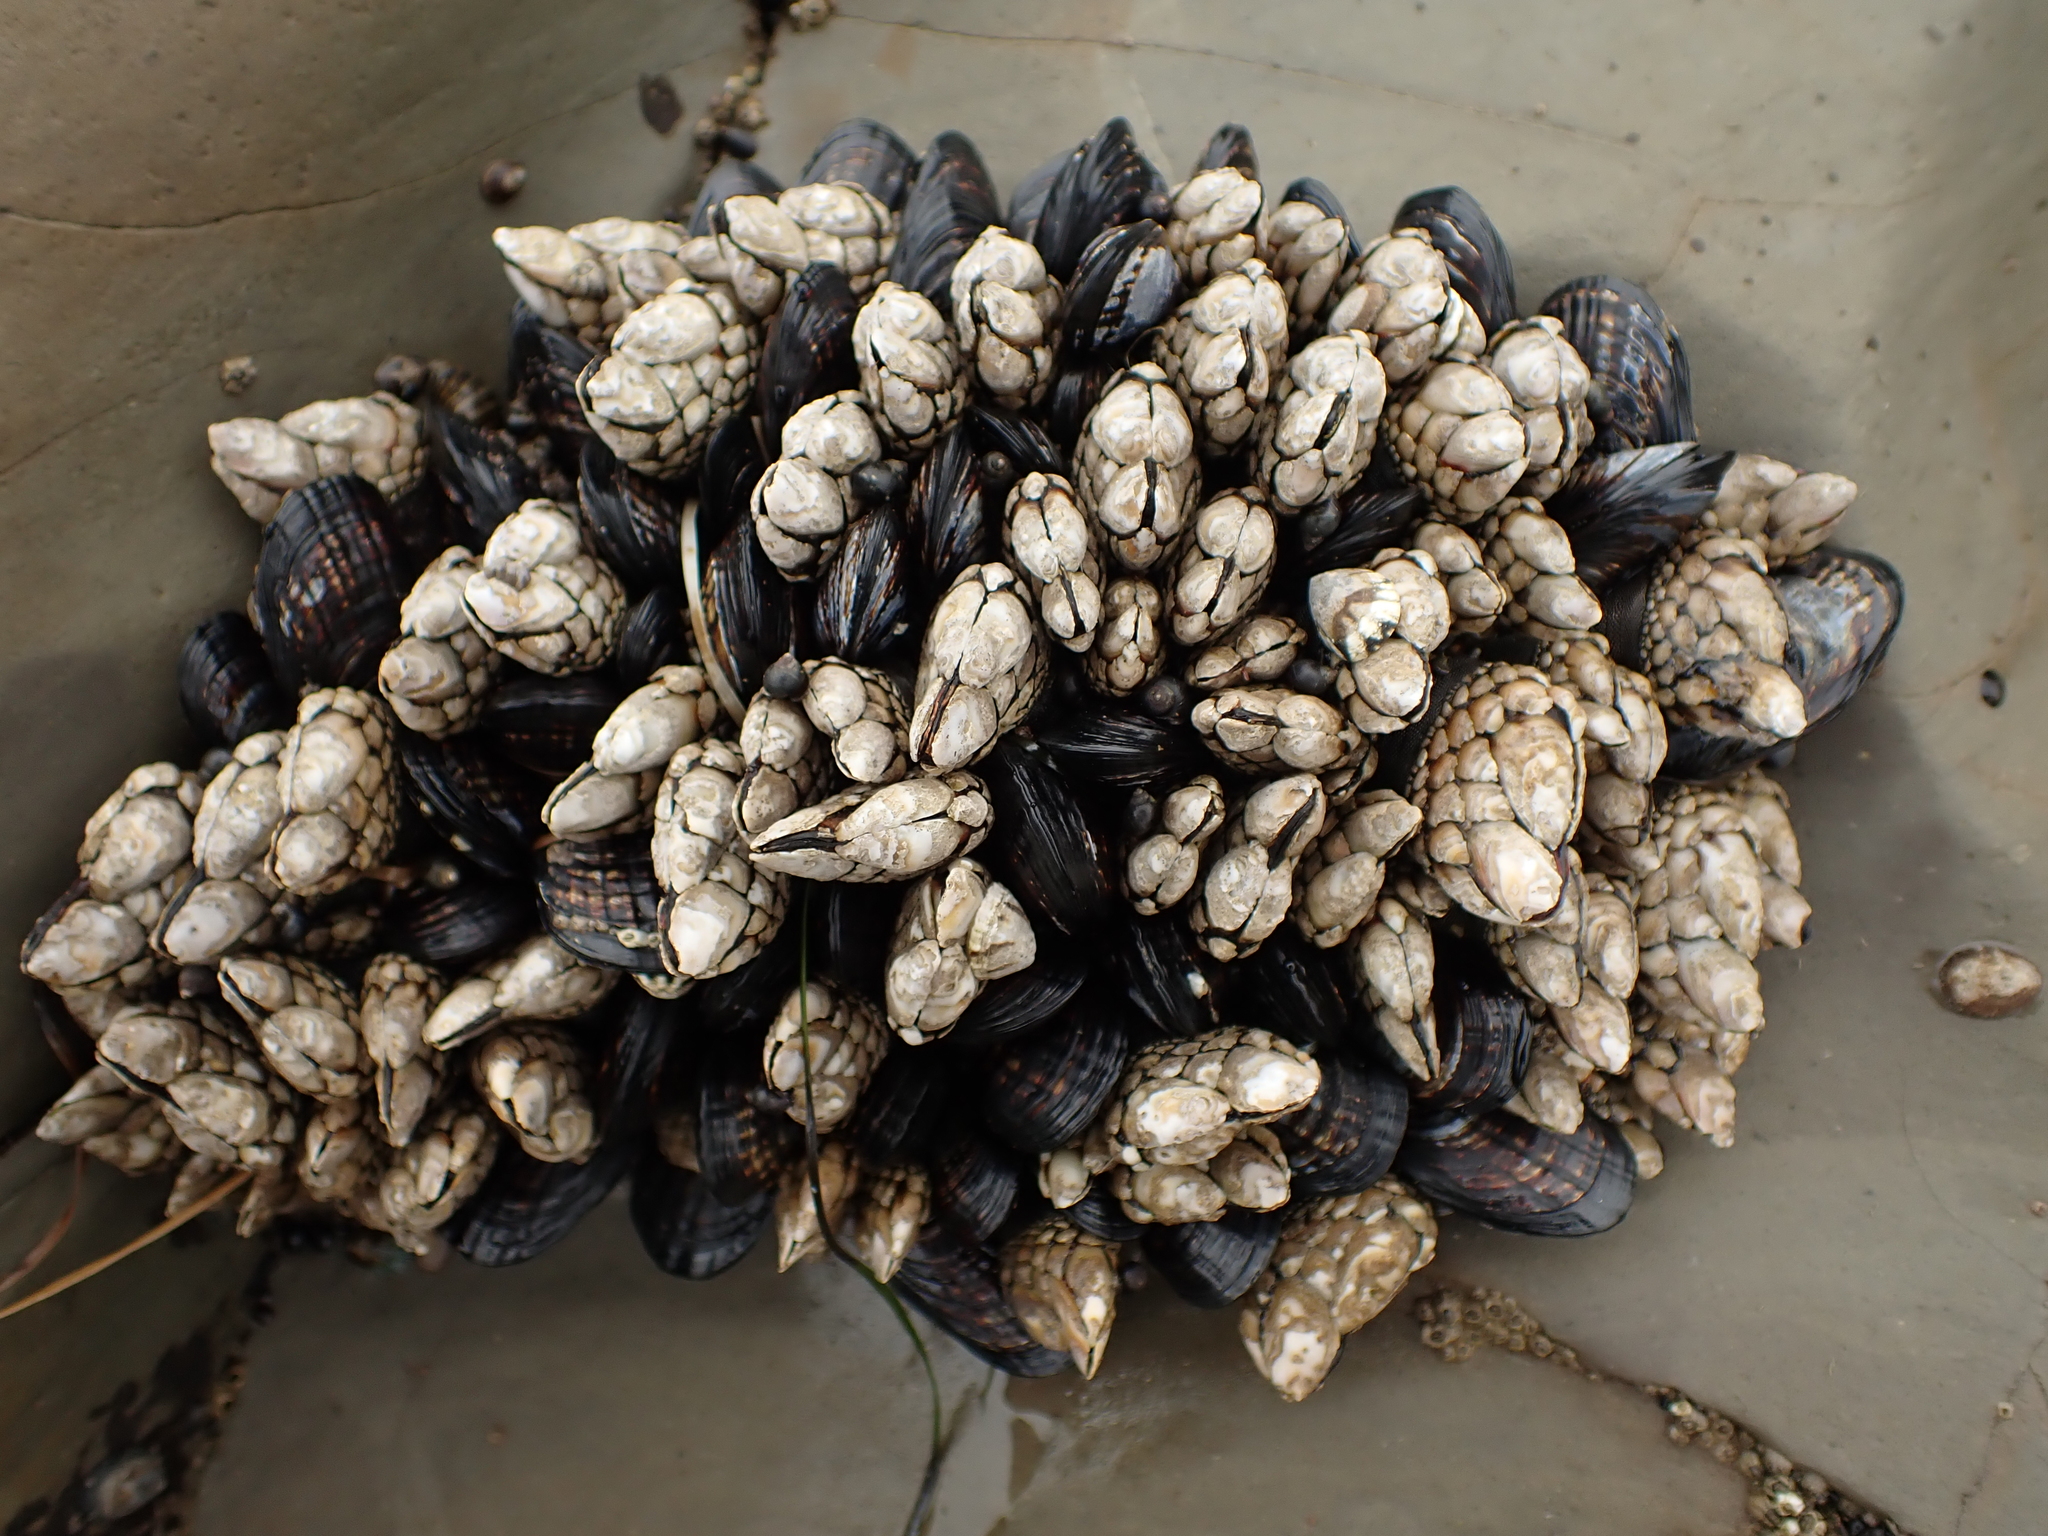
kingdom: Animalia
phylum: Arthropoda
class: Maxillopoda
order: Pedunculata
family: Pollicipedidae
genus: Pollicipes
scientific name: Pollicipes polymerus
